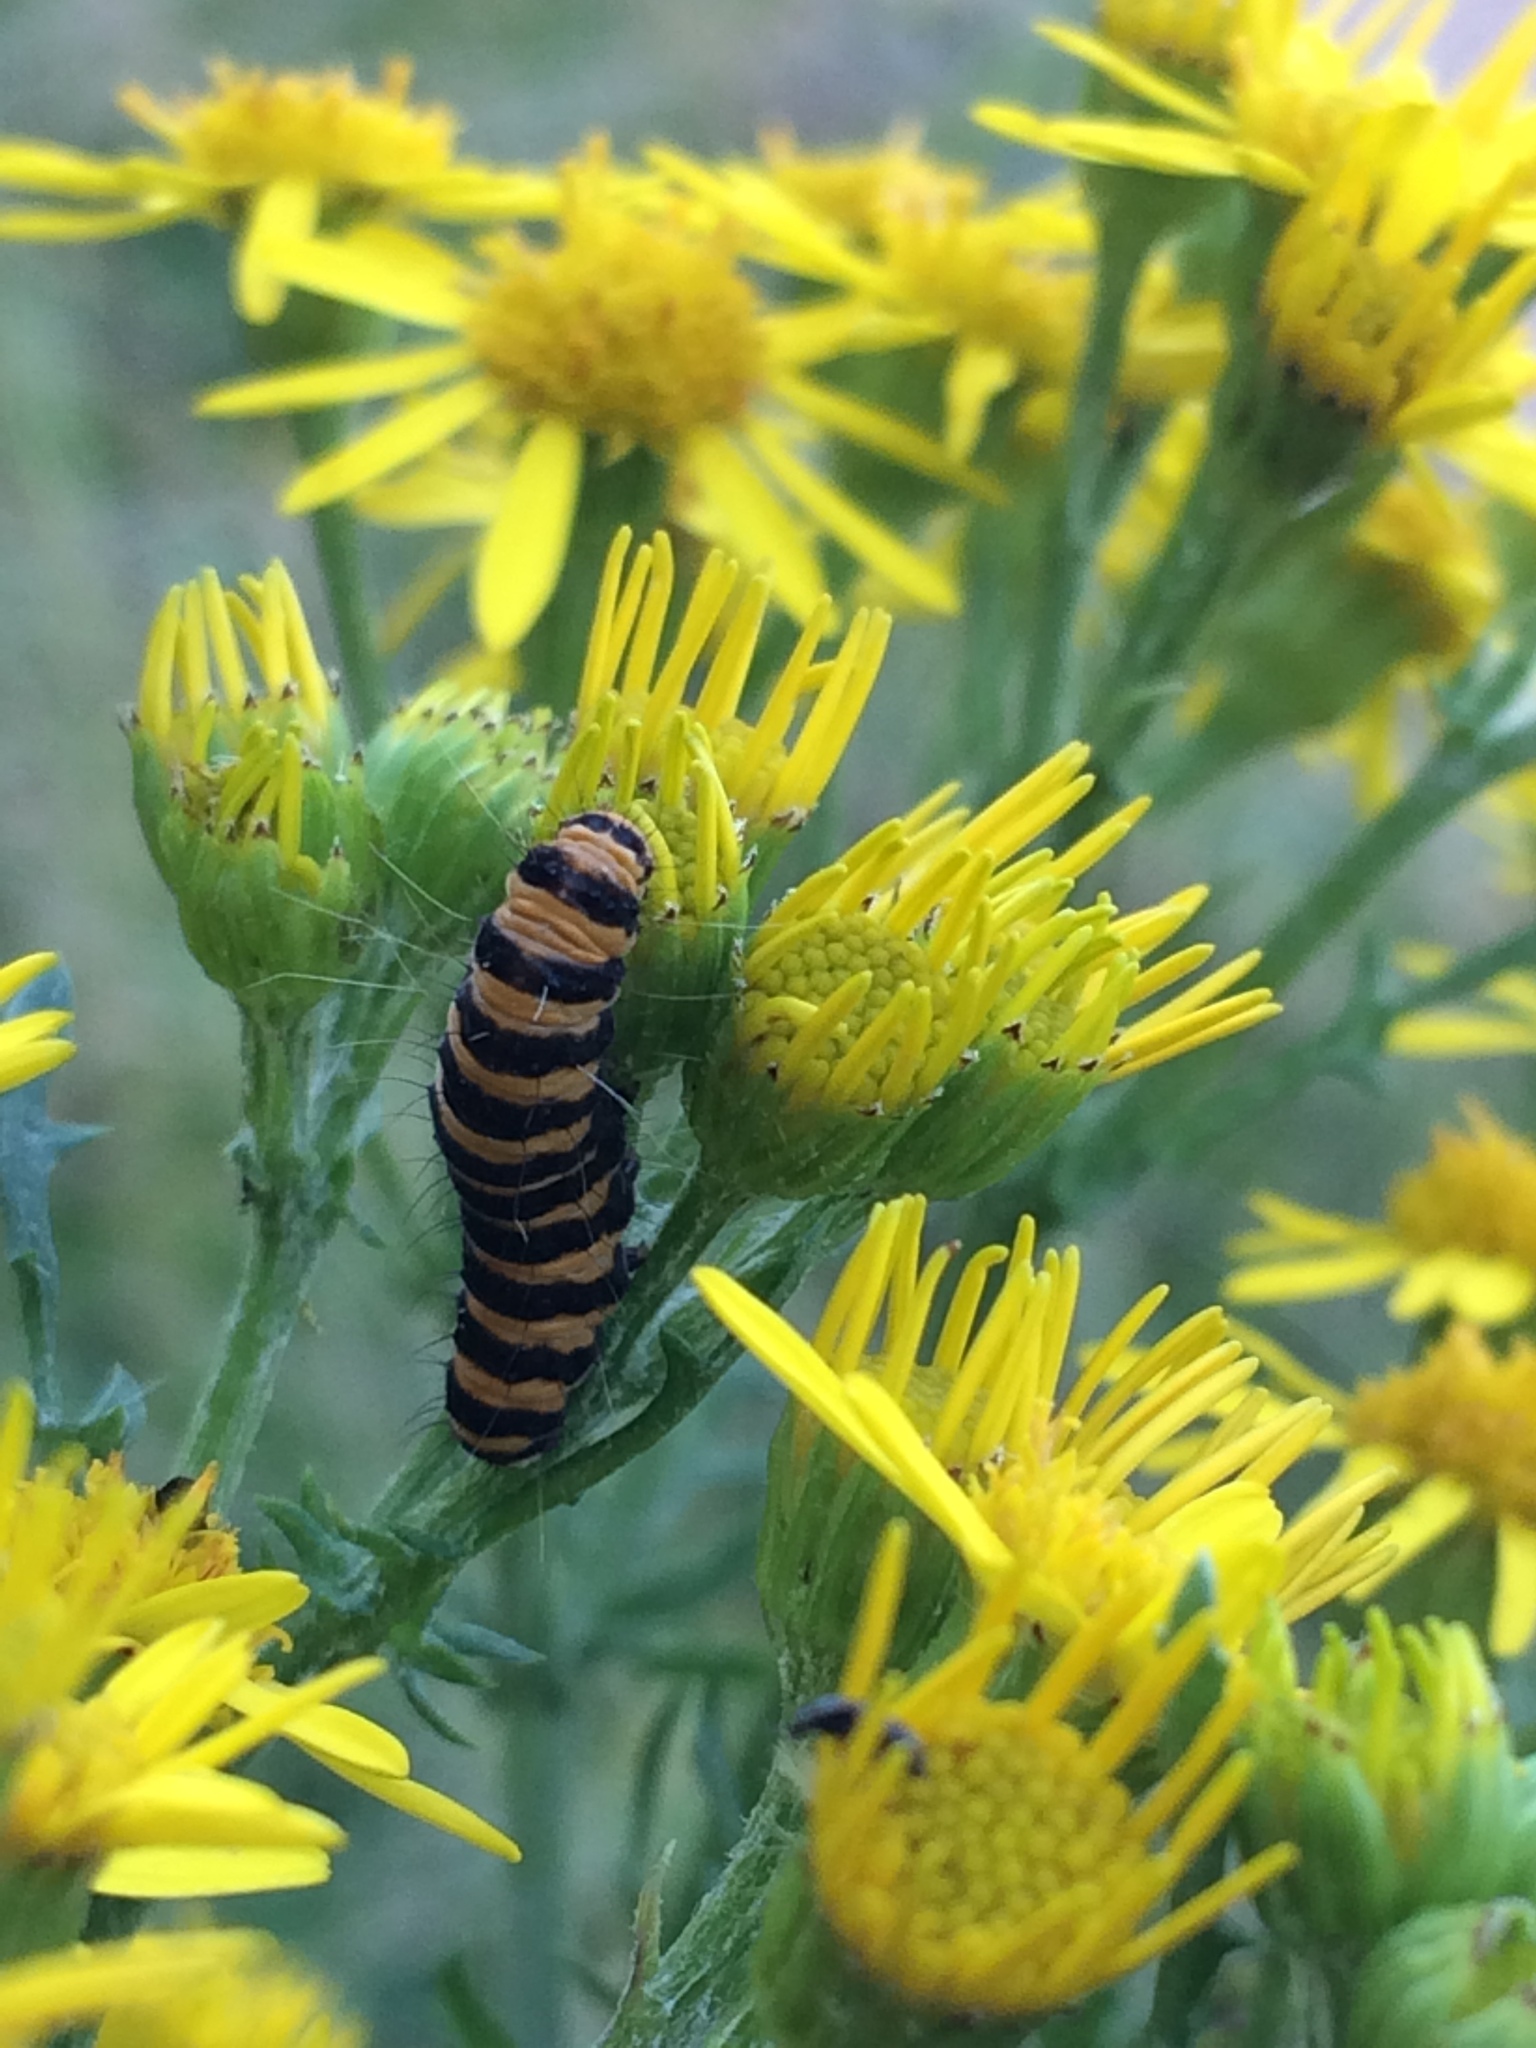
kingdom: Animalia
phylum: Arthropoda
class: Insecta
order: Lepidoptera
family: Erebidae
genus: Tyria
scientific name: Tyria jacobaeae
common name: Cinnabar
